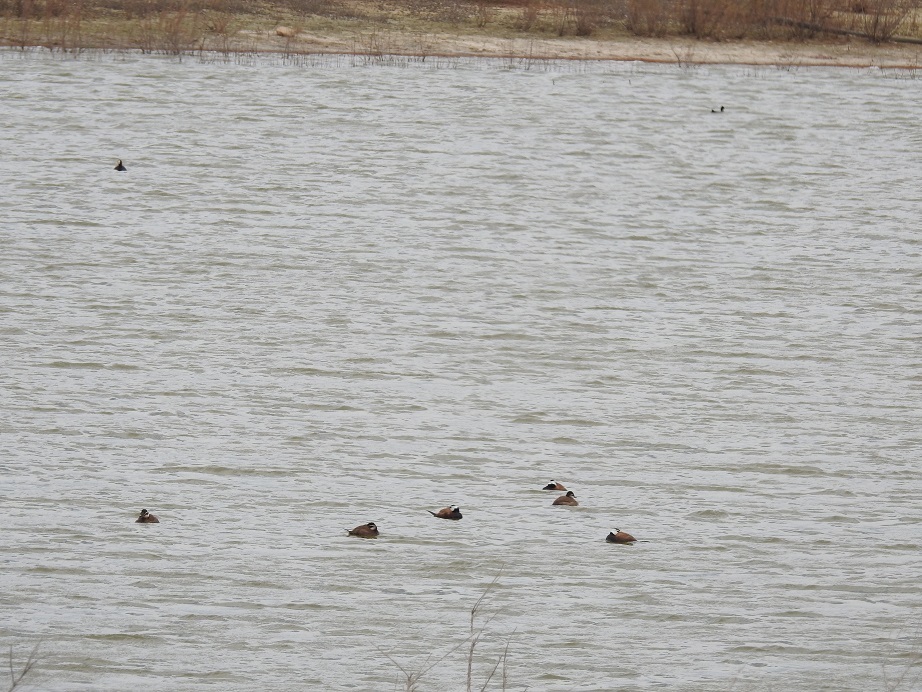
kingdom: Animalia
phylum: Chordata
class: Aves
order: Anseriformes
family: Anatidae
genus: Oxyura
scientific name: Oxyura leucocephala
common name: White-headed duck
